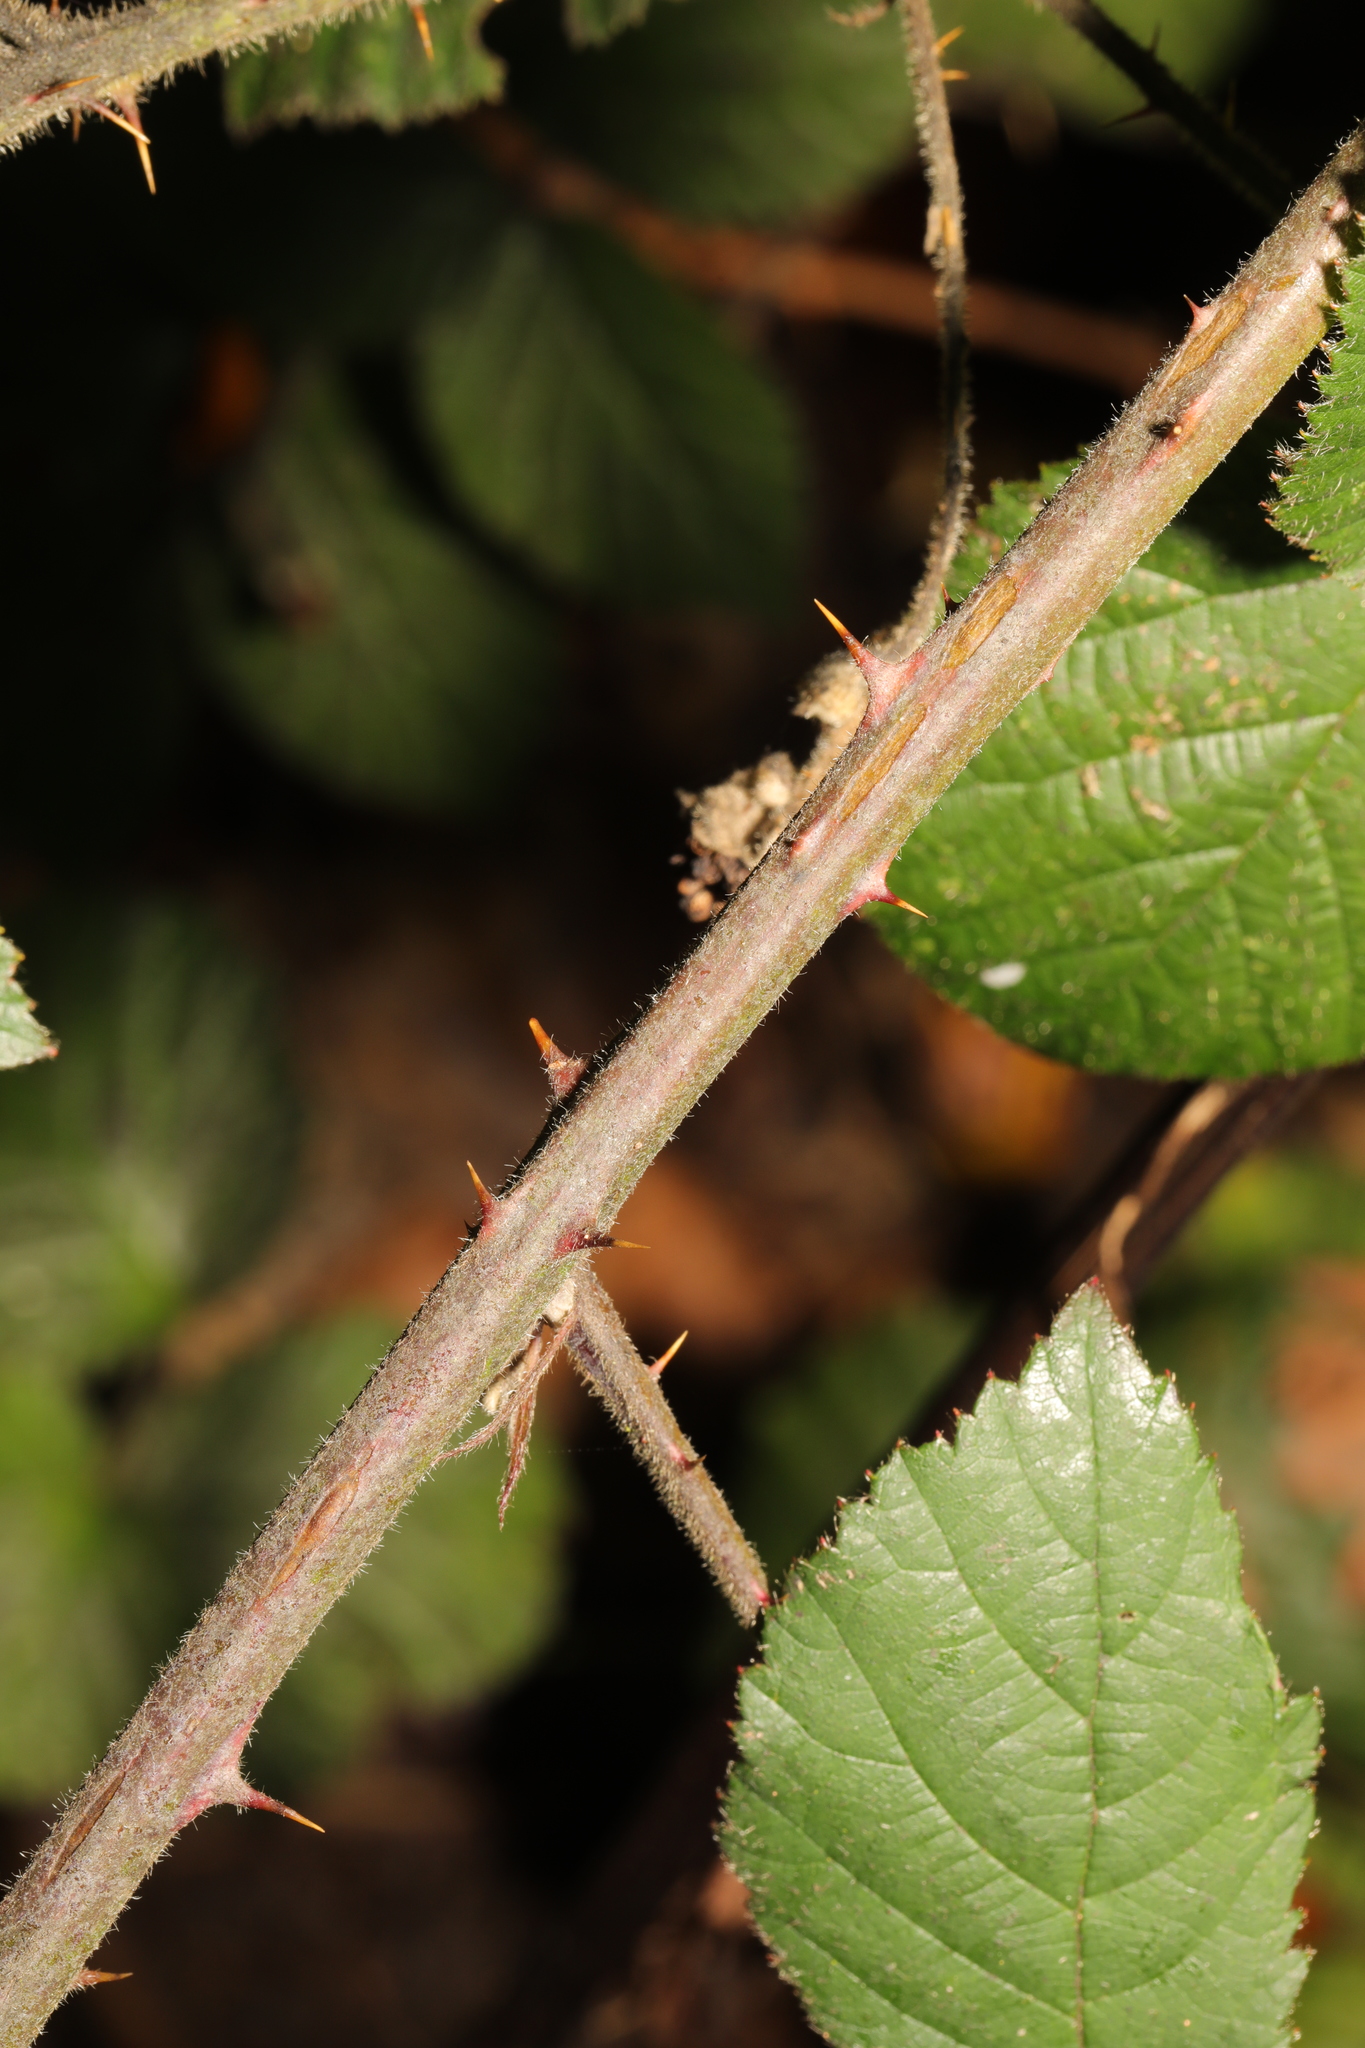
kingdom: Plantae
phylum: Tracheophyta
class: Magnoliopsida
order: Rosales
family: Rosaceae
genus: Rubus
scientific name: Rubus vestitus
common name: European blackberry
